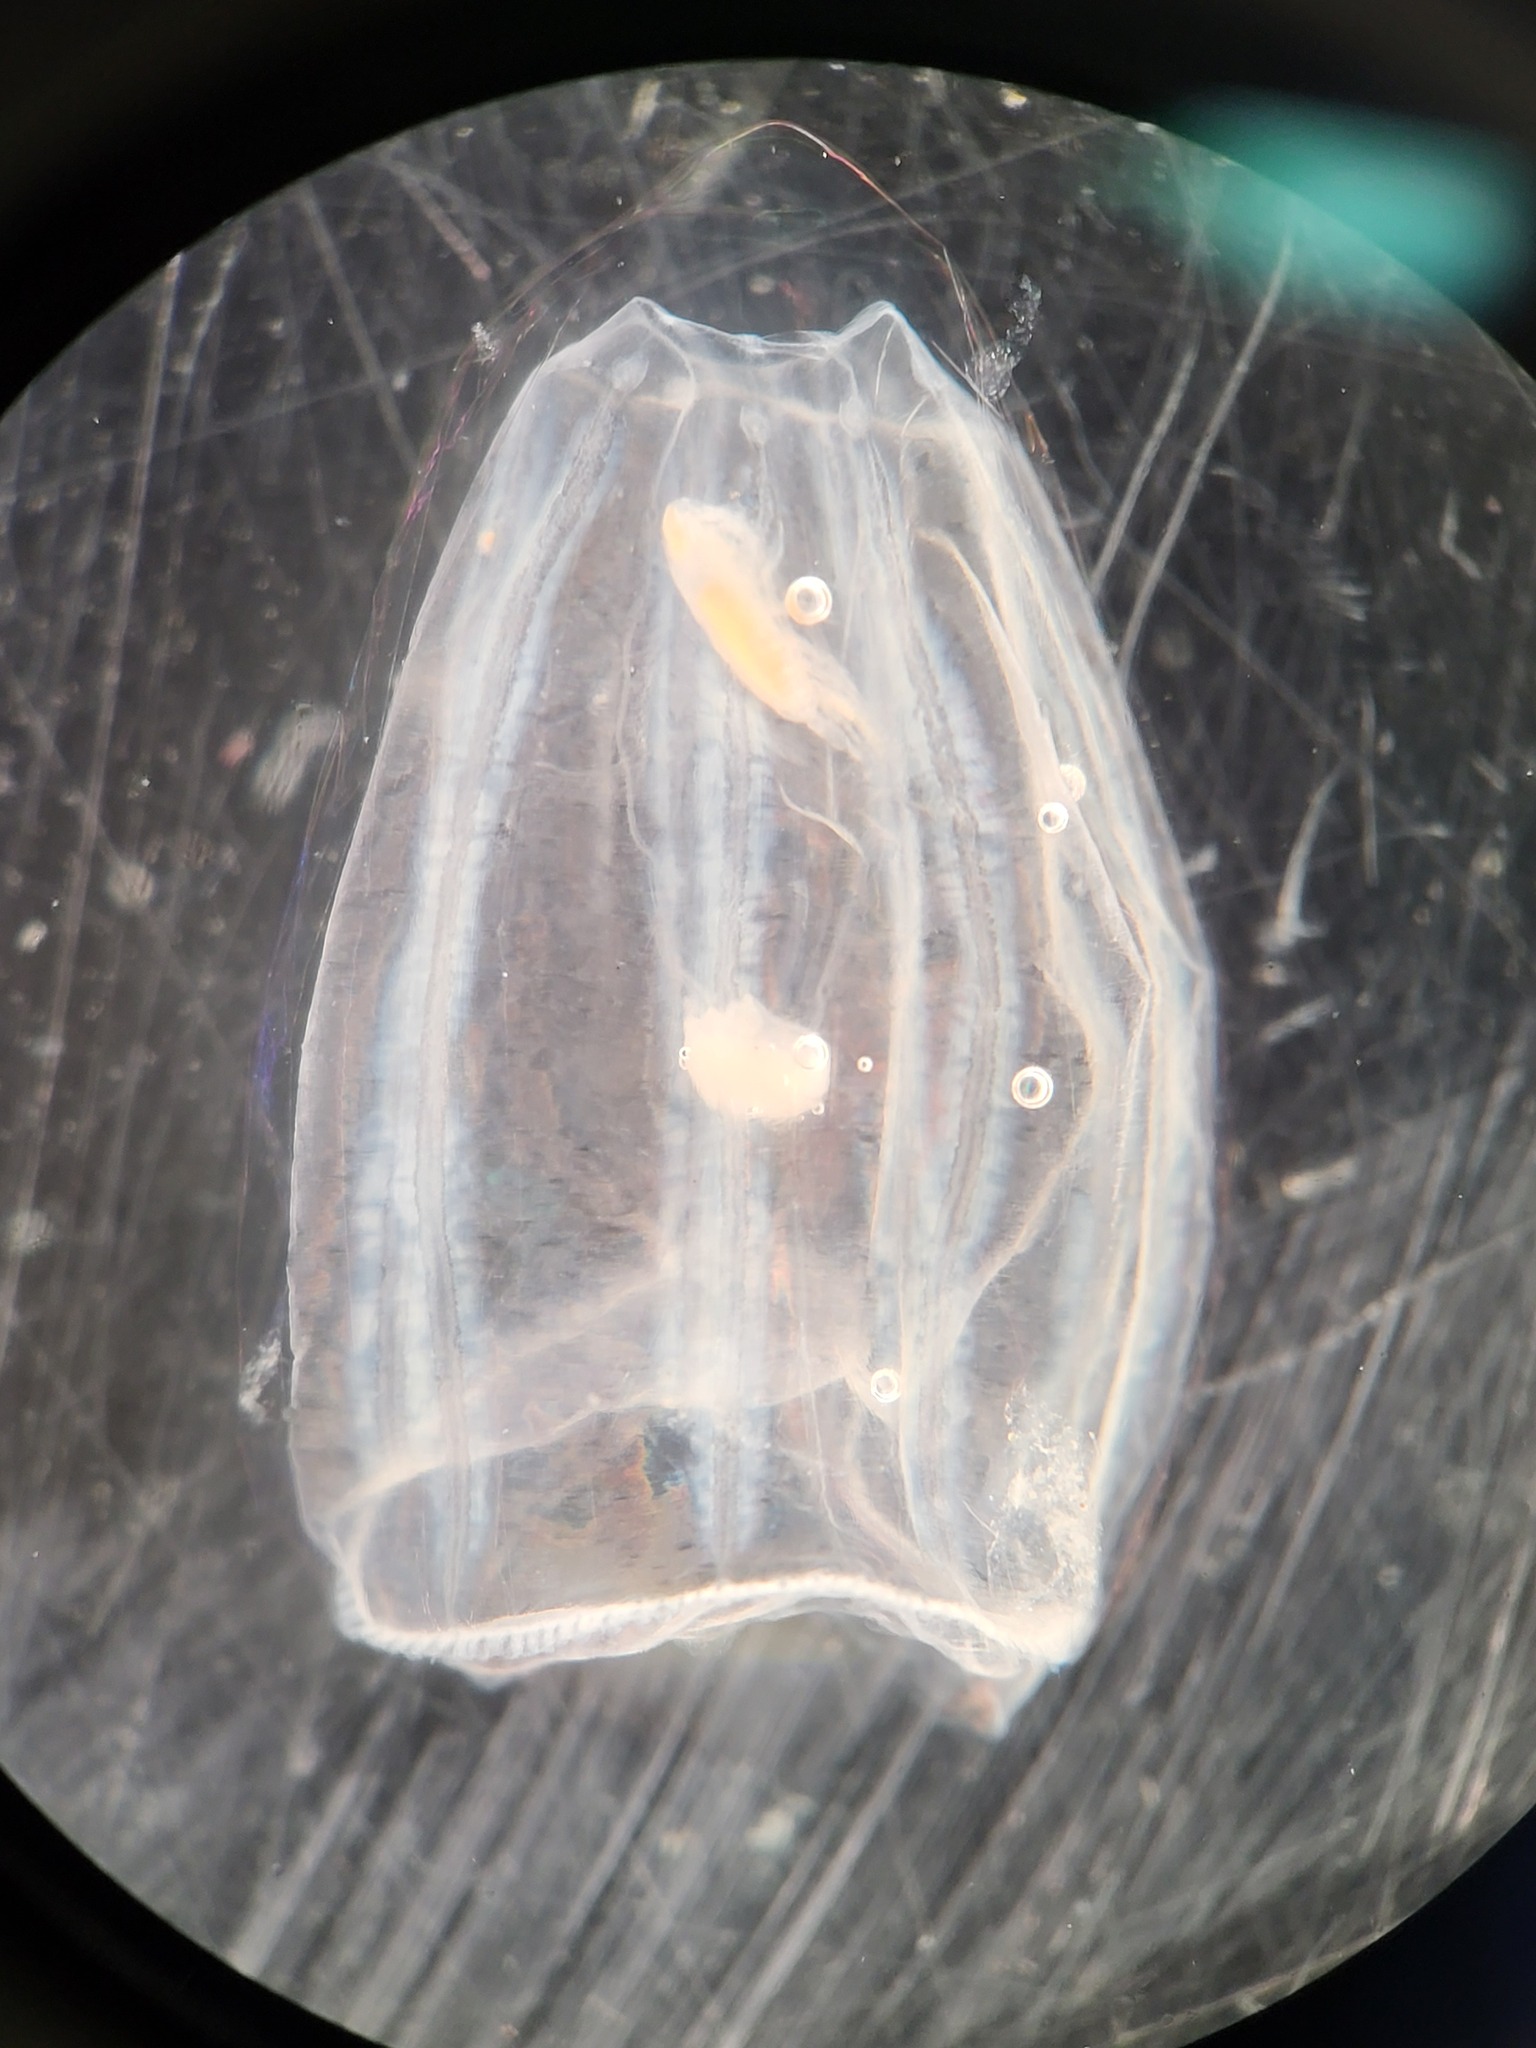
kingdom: Animalia
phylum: Cnidaria
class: Hydrozoa
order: Trachymedusae
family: Rhopalonematidae
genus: Aglantha
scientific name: Aglantha digitale
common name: Pink helmet
